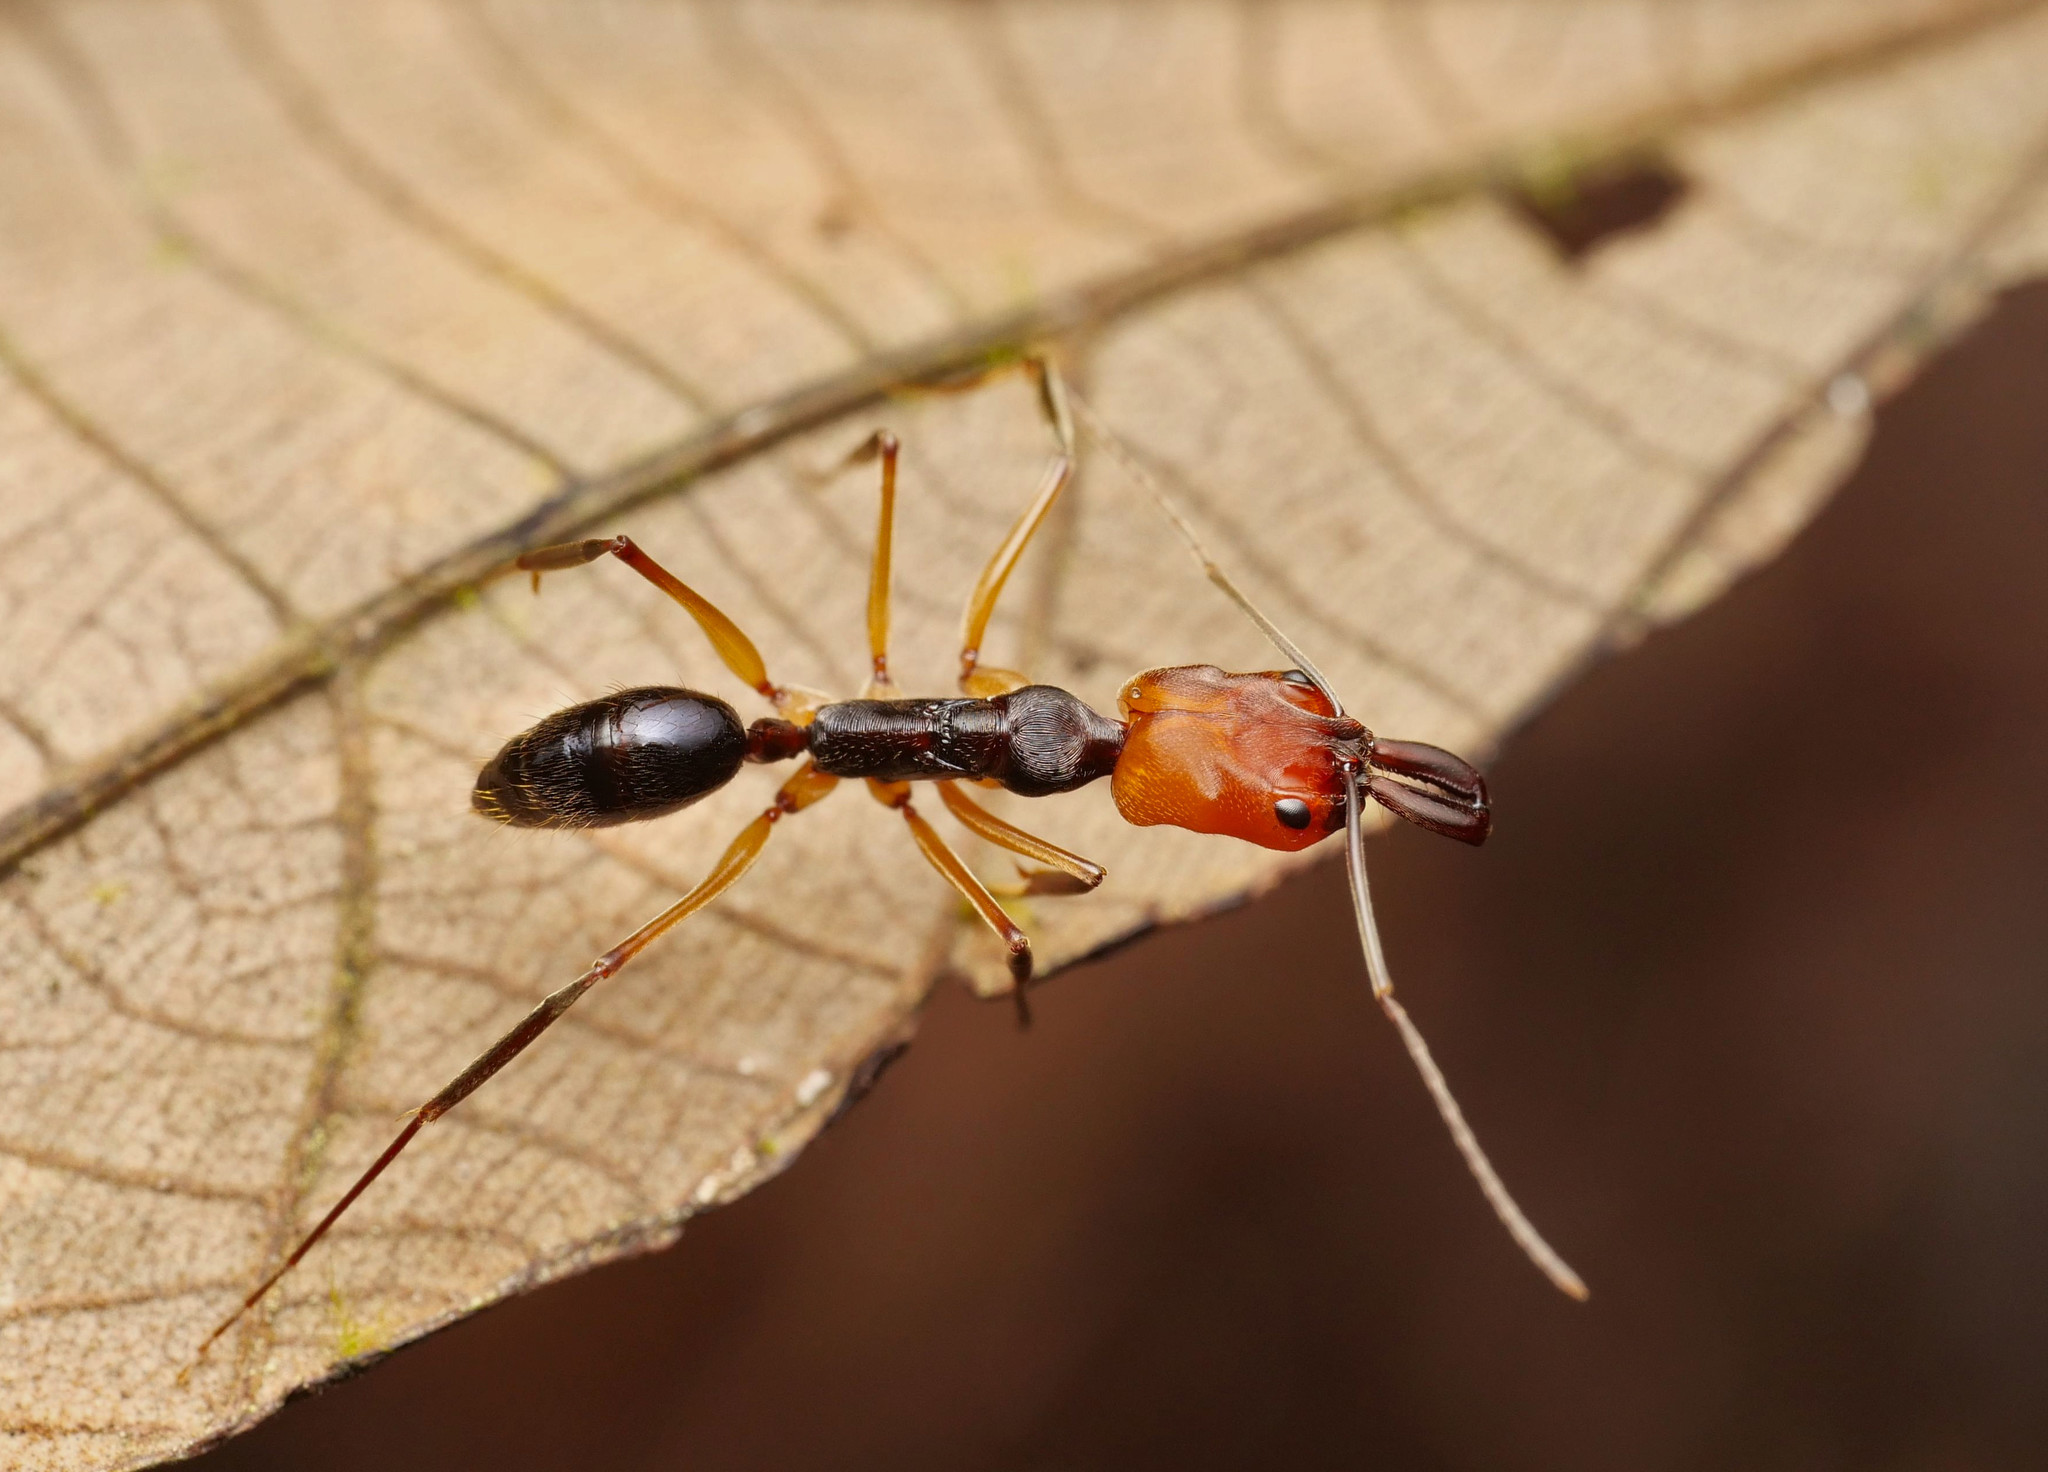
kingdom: Animalia
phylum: Arthropoda
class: Insecta
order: Hymenoptera
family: Formicidae
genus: Odontomachus
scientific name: Odontomachus erythrocephalus
